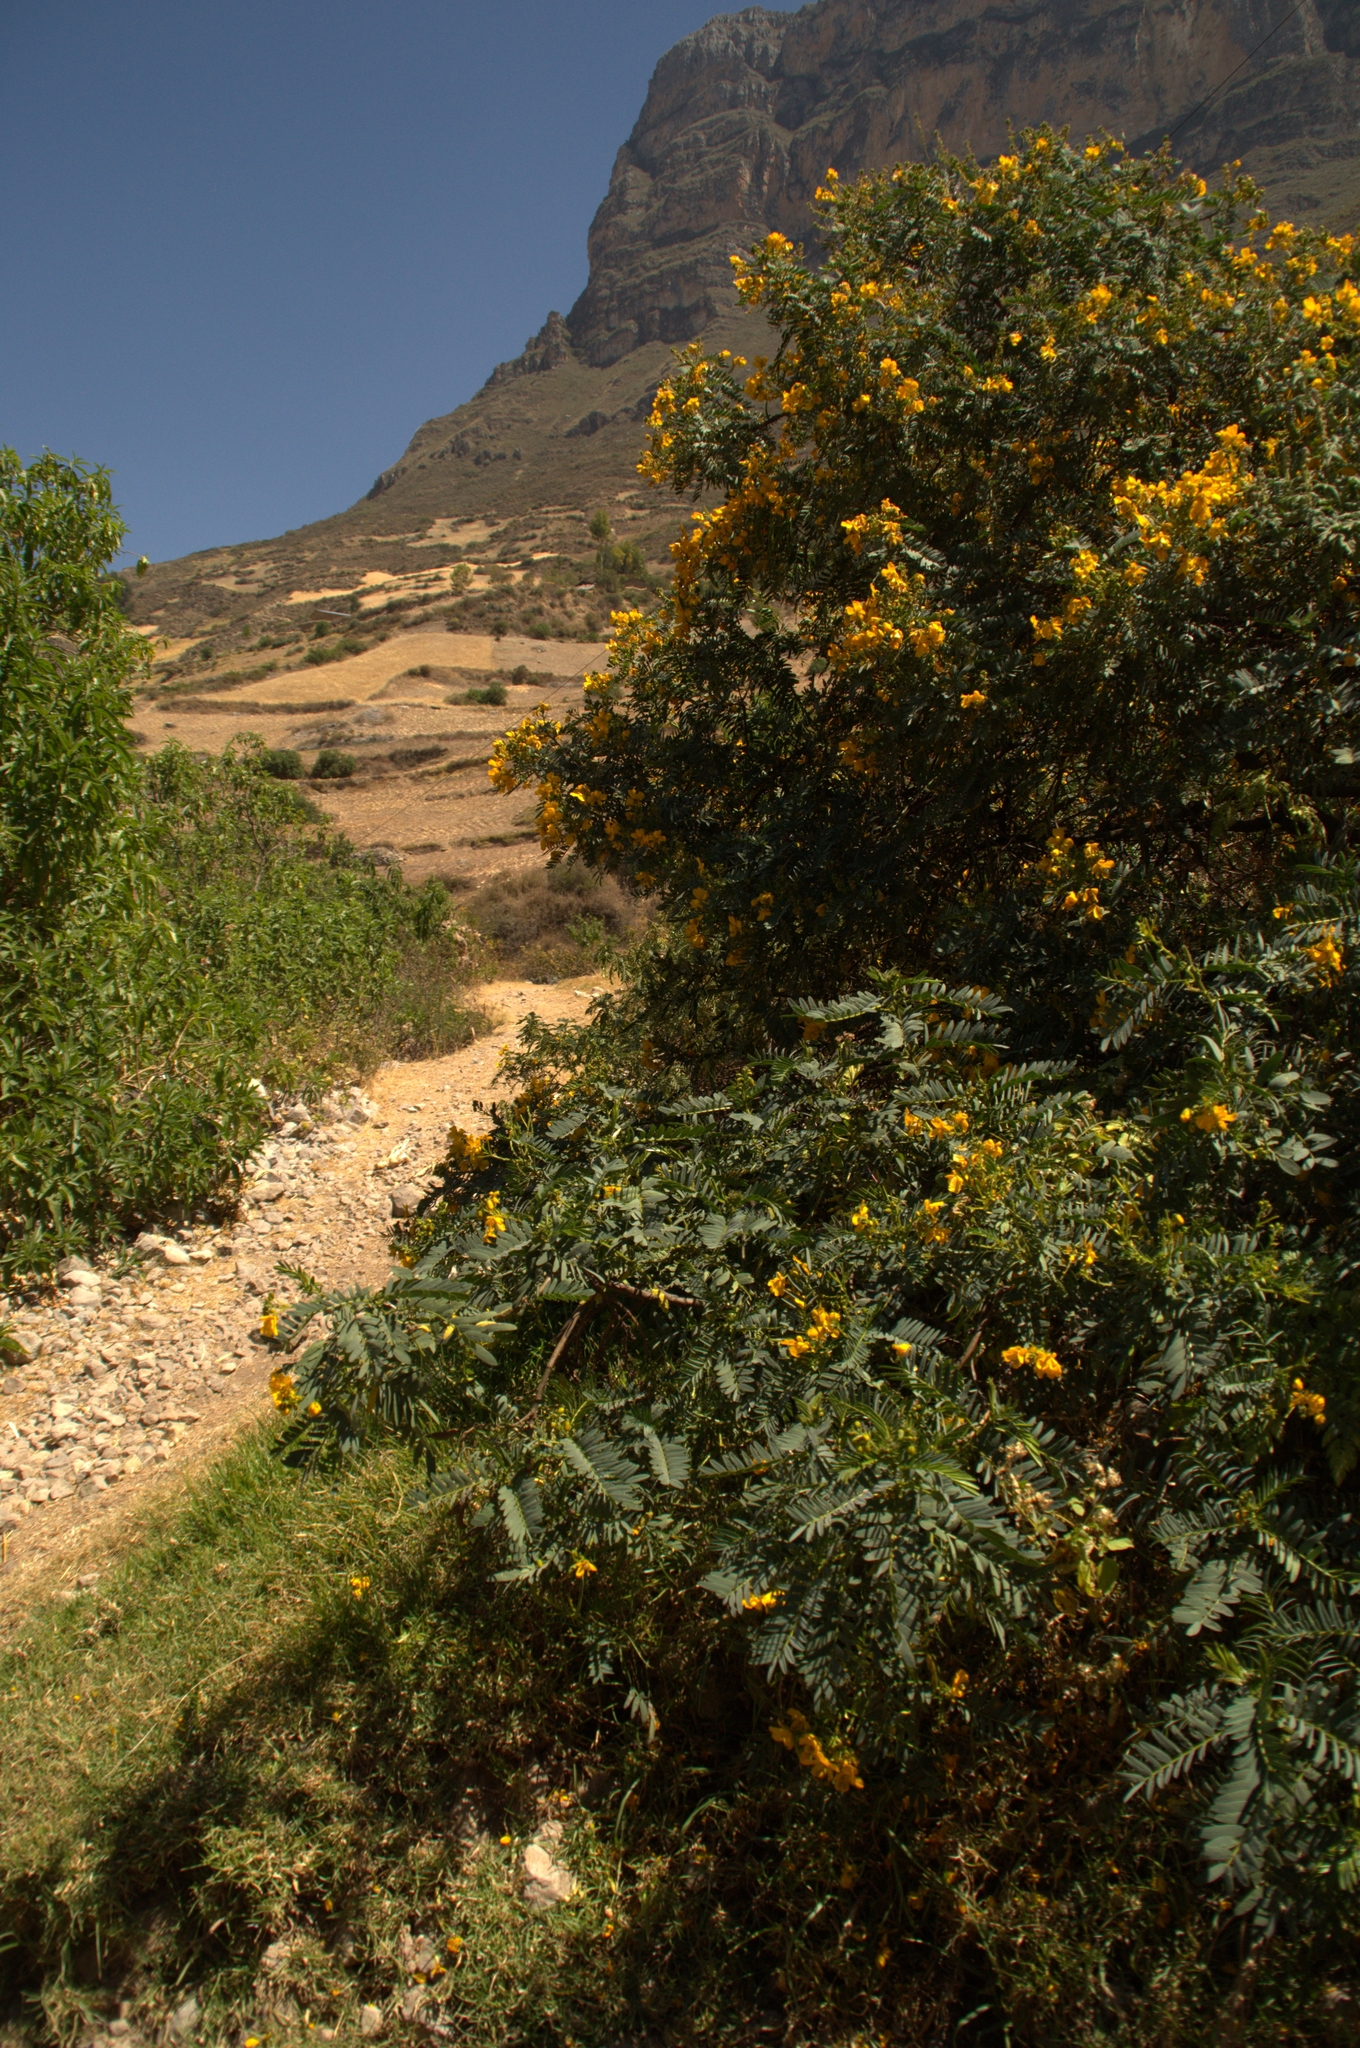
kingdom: Plantae
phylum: Tracheophyta
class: Magnoliopsida
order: Fabales
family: Fabaceae
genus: Senna
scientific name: Senna versicolor
